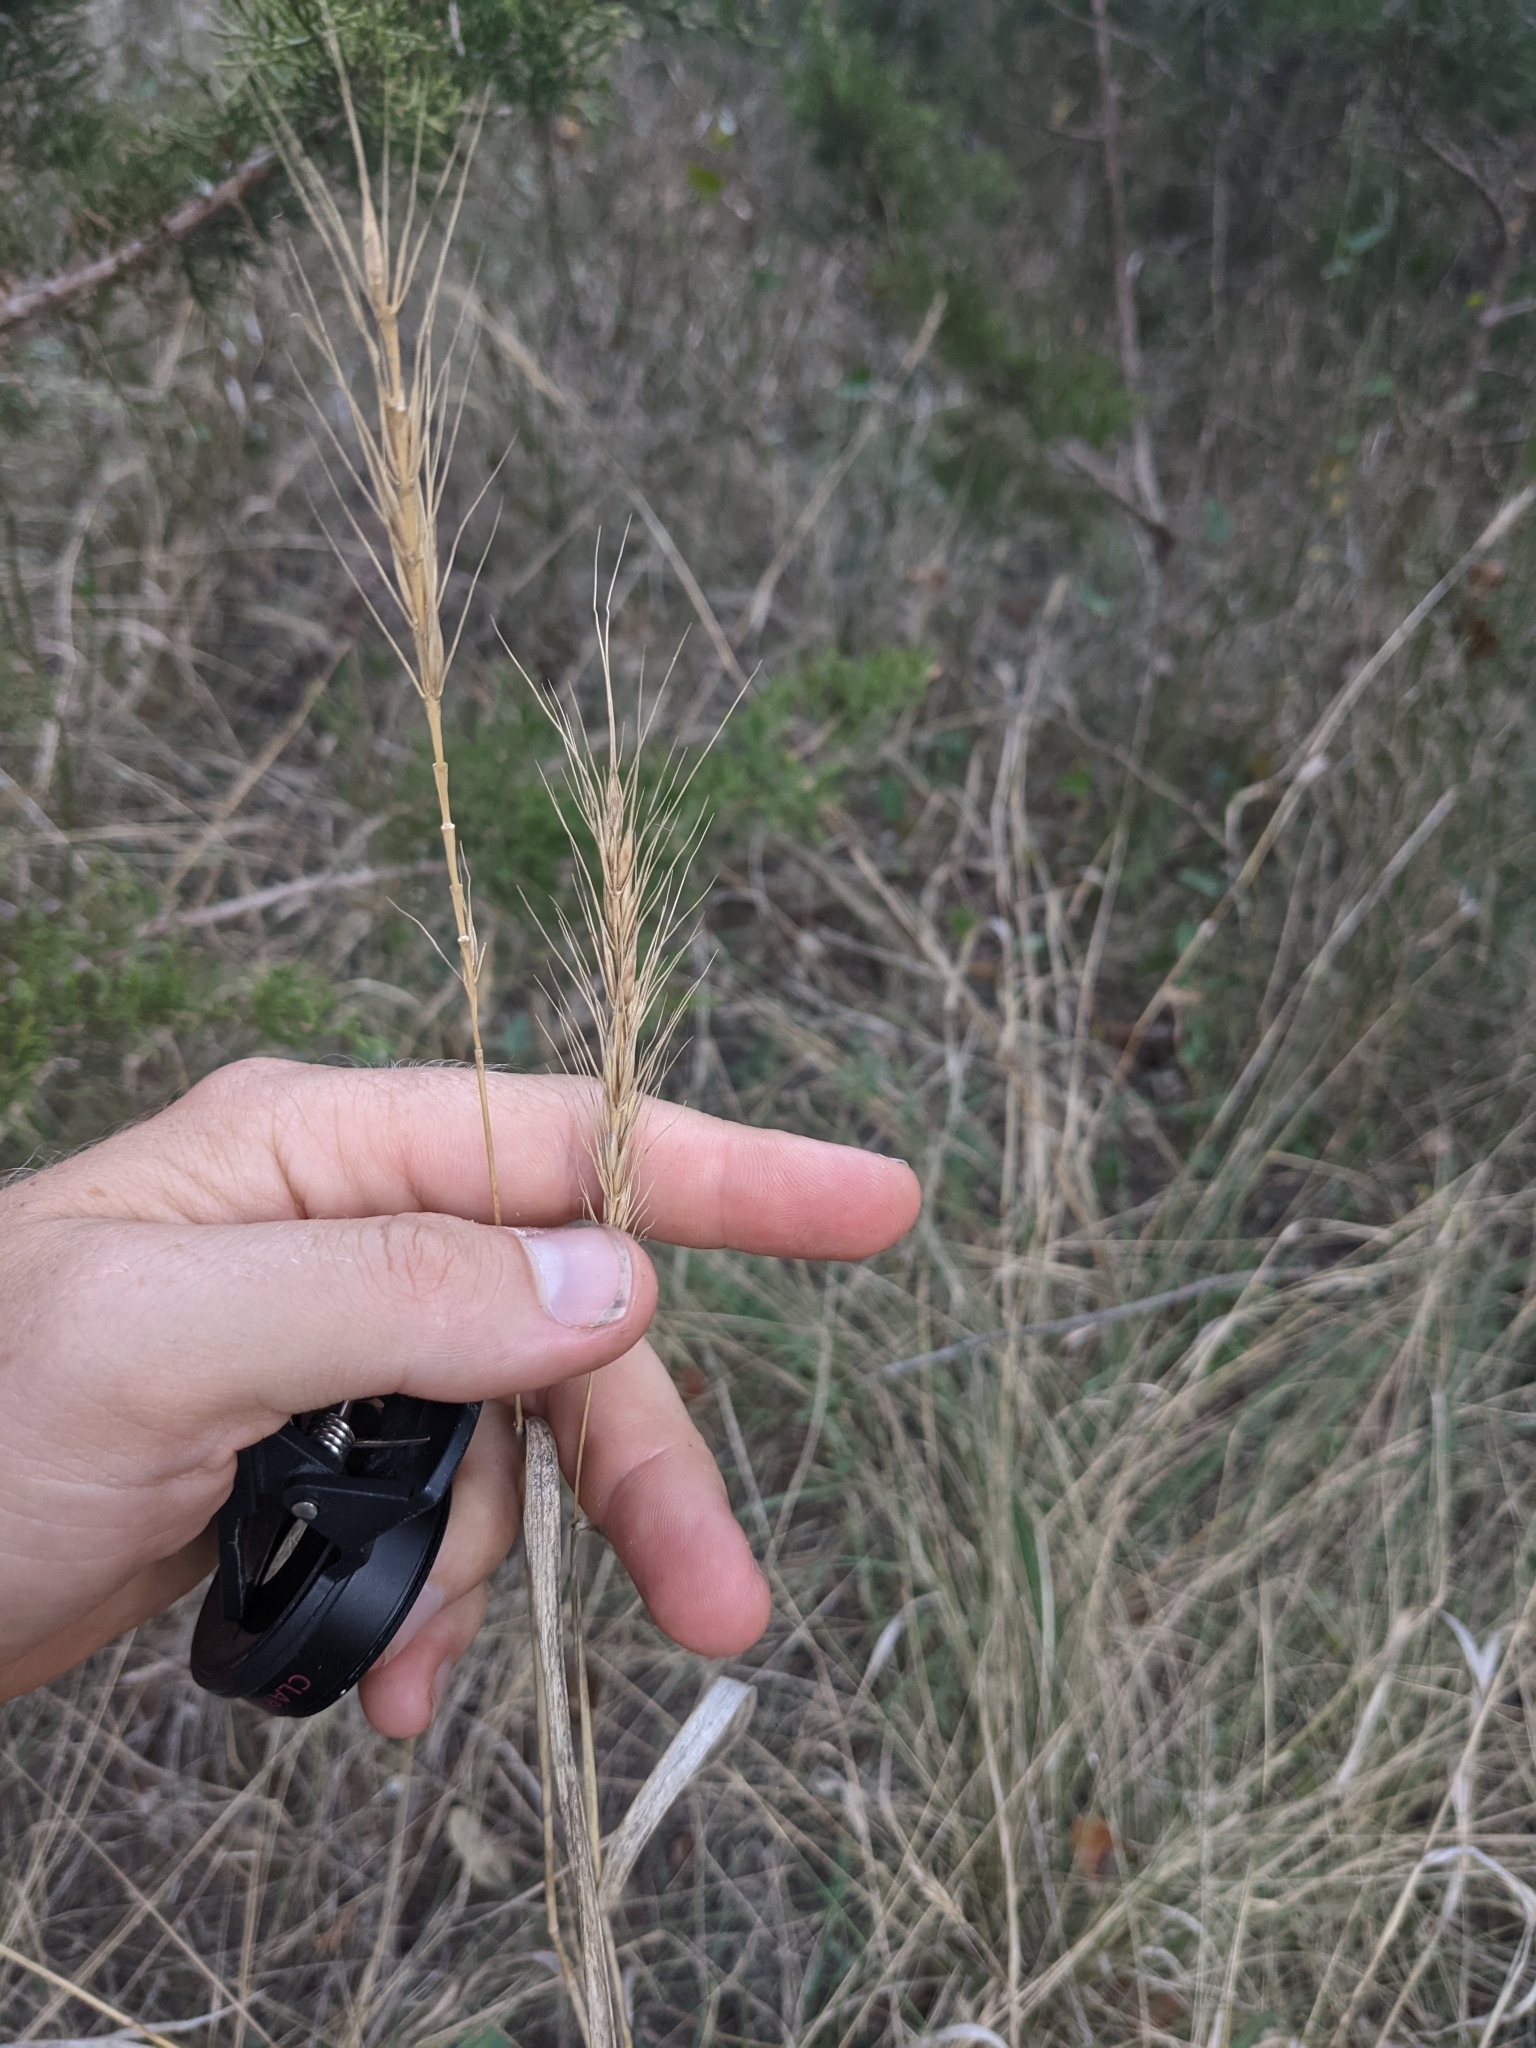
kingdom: Plantae
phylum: Tracheophyta
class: Liliopsida
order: Poales
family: Poaceae
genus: Elymus
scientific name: Elymus interruptus
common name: Southwestern wild rye
